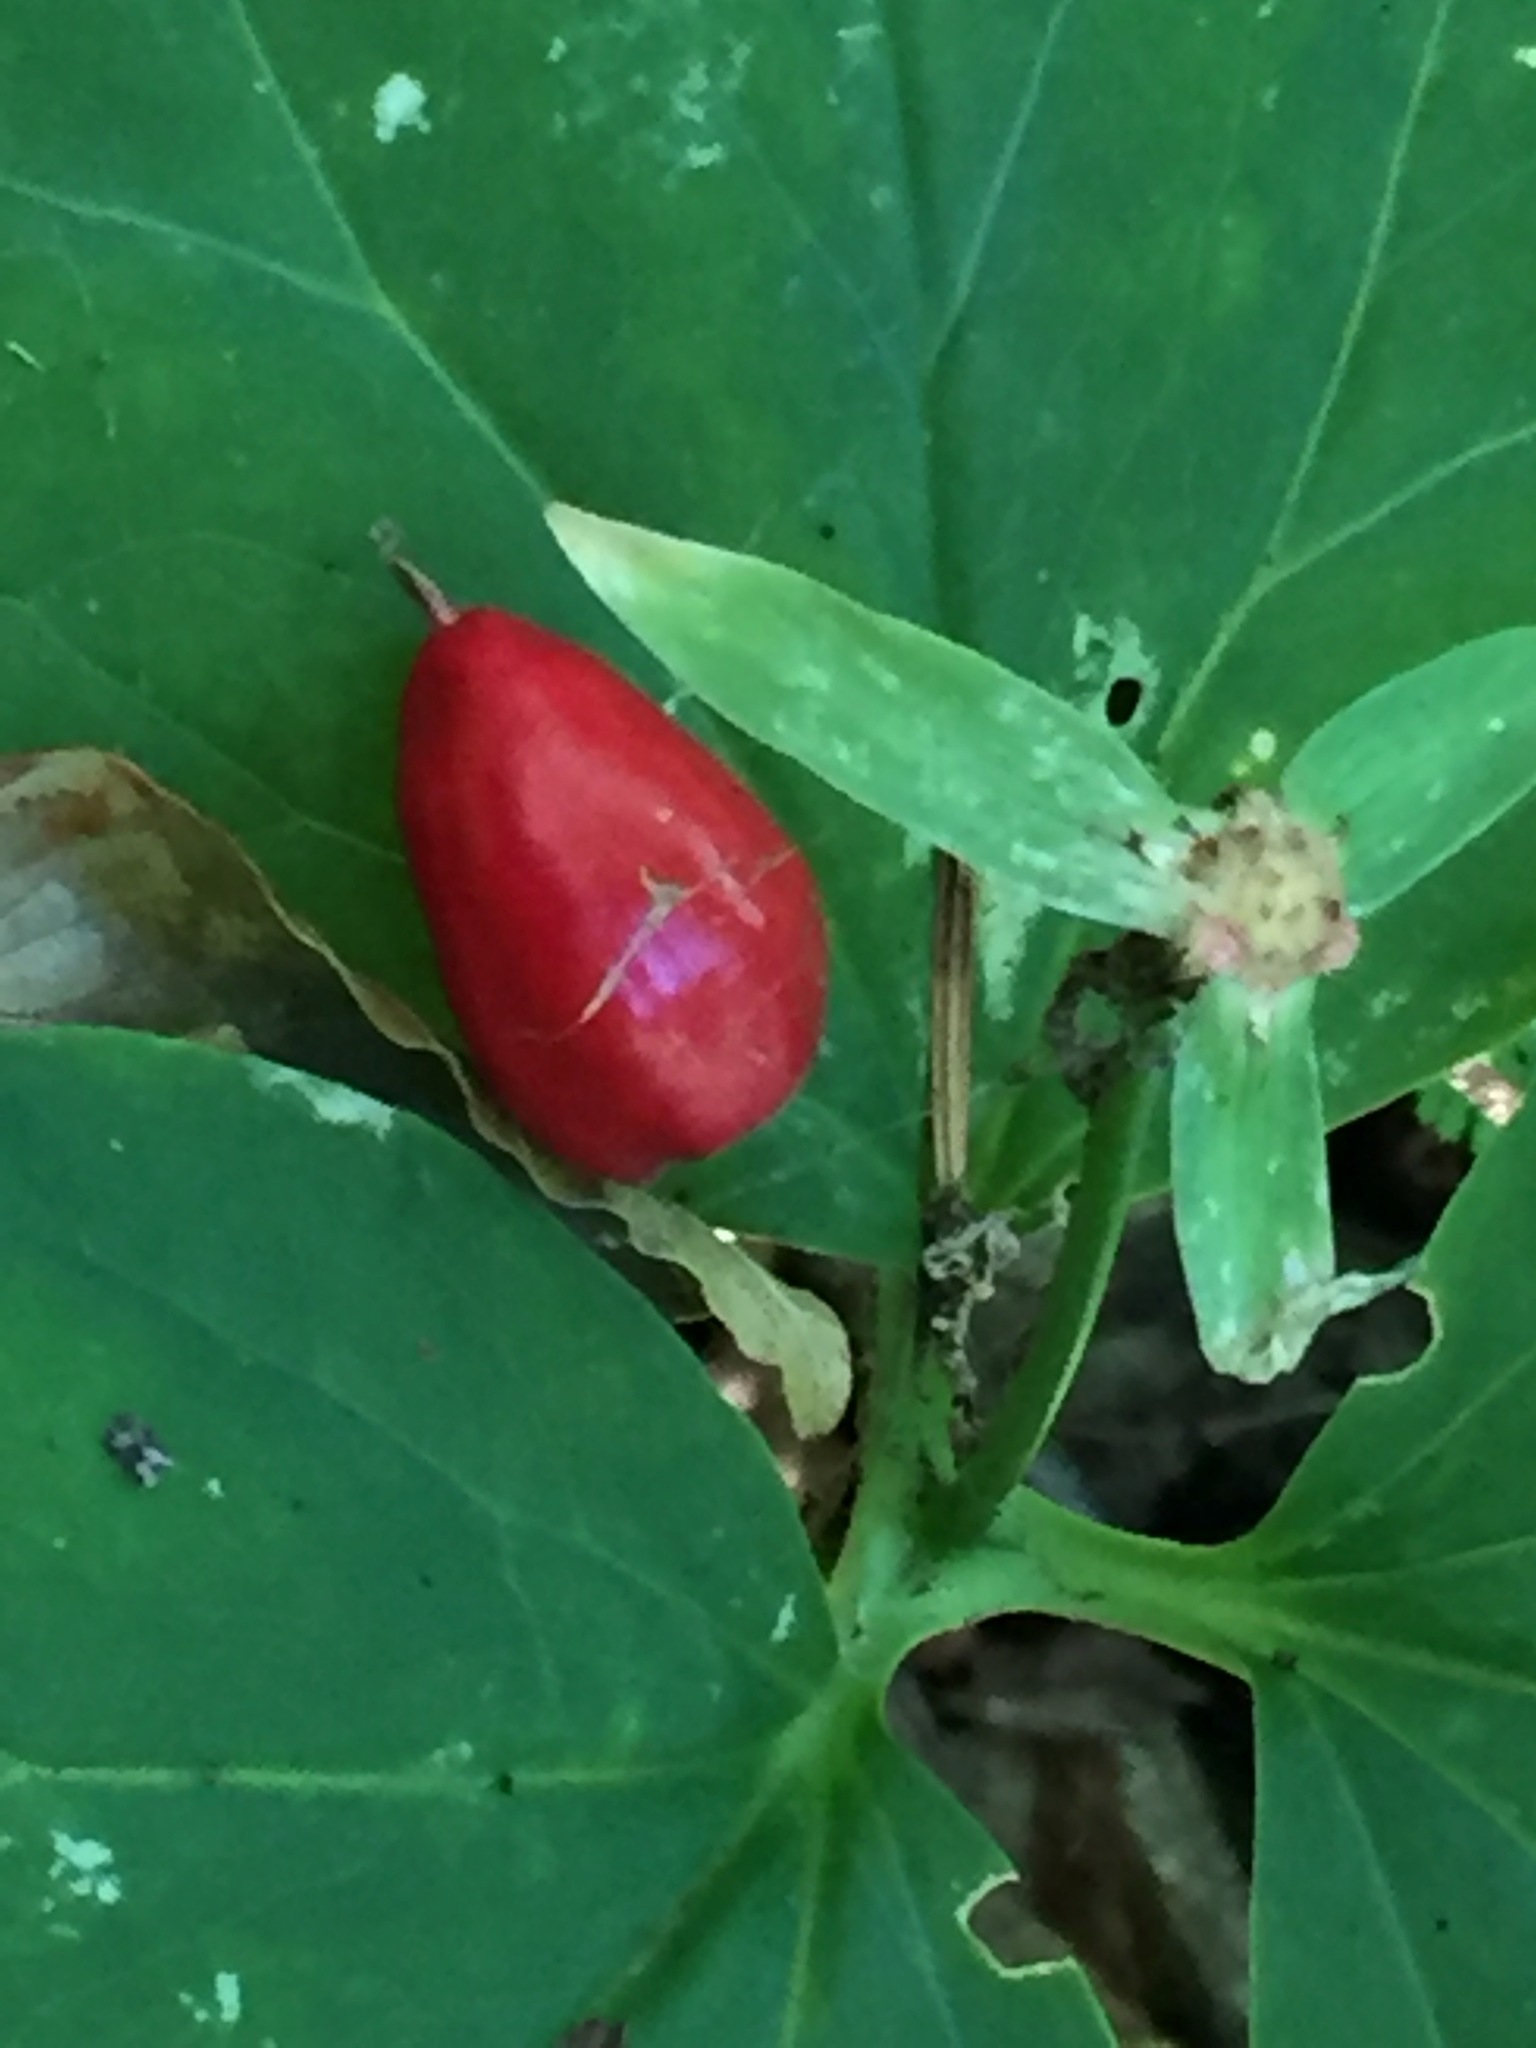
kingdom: Plantae
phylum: Tracheophyta
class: Liliopsida
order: Liliales
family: Melanthiaceae
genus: Trillium
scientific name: Trillium undulatum
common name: Paint trillium
